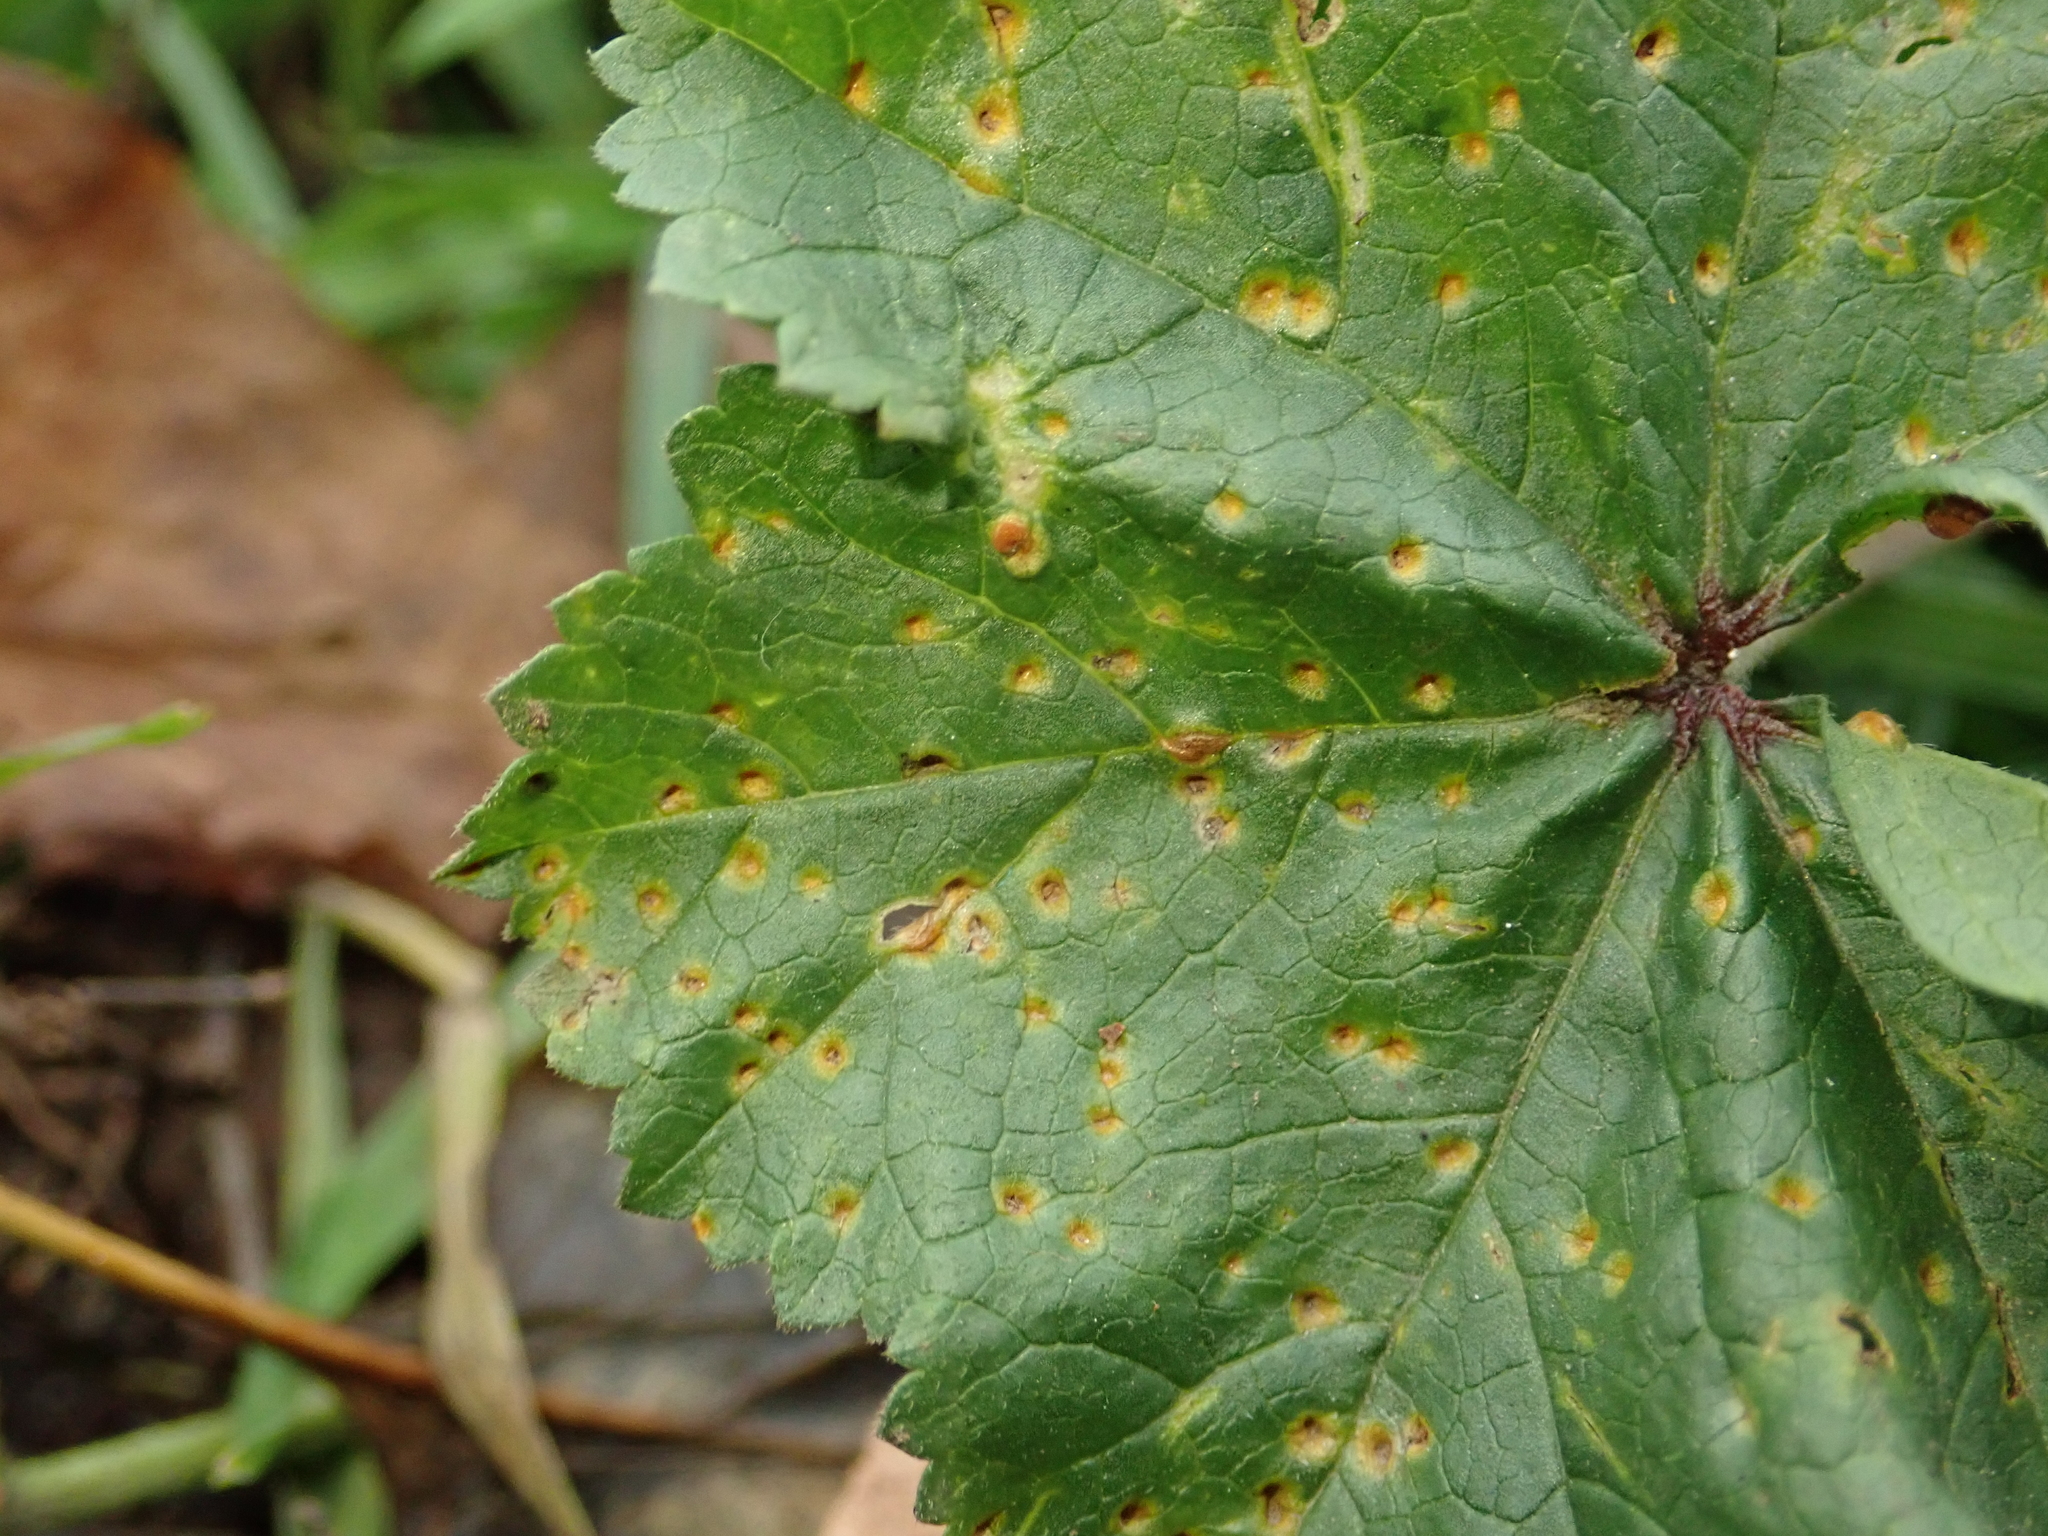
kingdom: Fungi
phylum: Basidiomycota
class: Pucciniomycetes
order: Pucciniales
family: Pucciniaceae
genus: Puccinia
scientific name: Puccinia malvacearum
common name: Hollyhock rust
